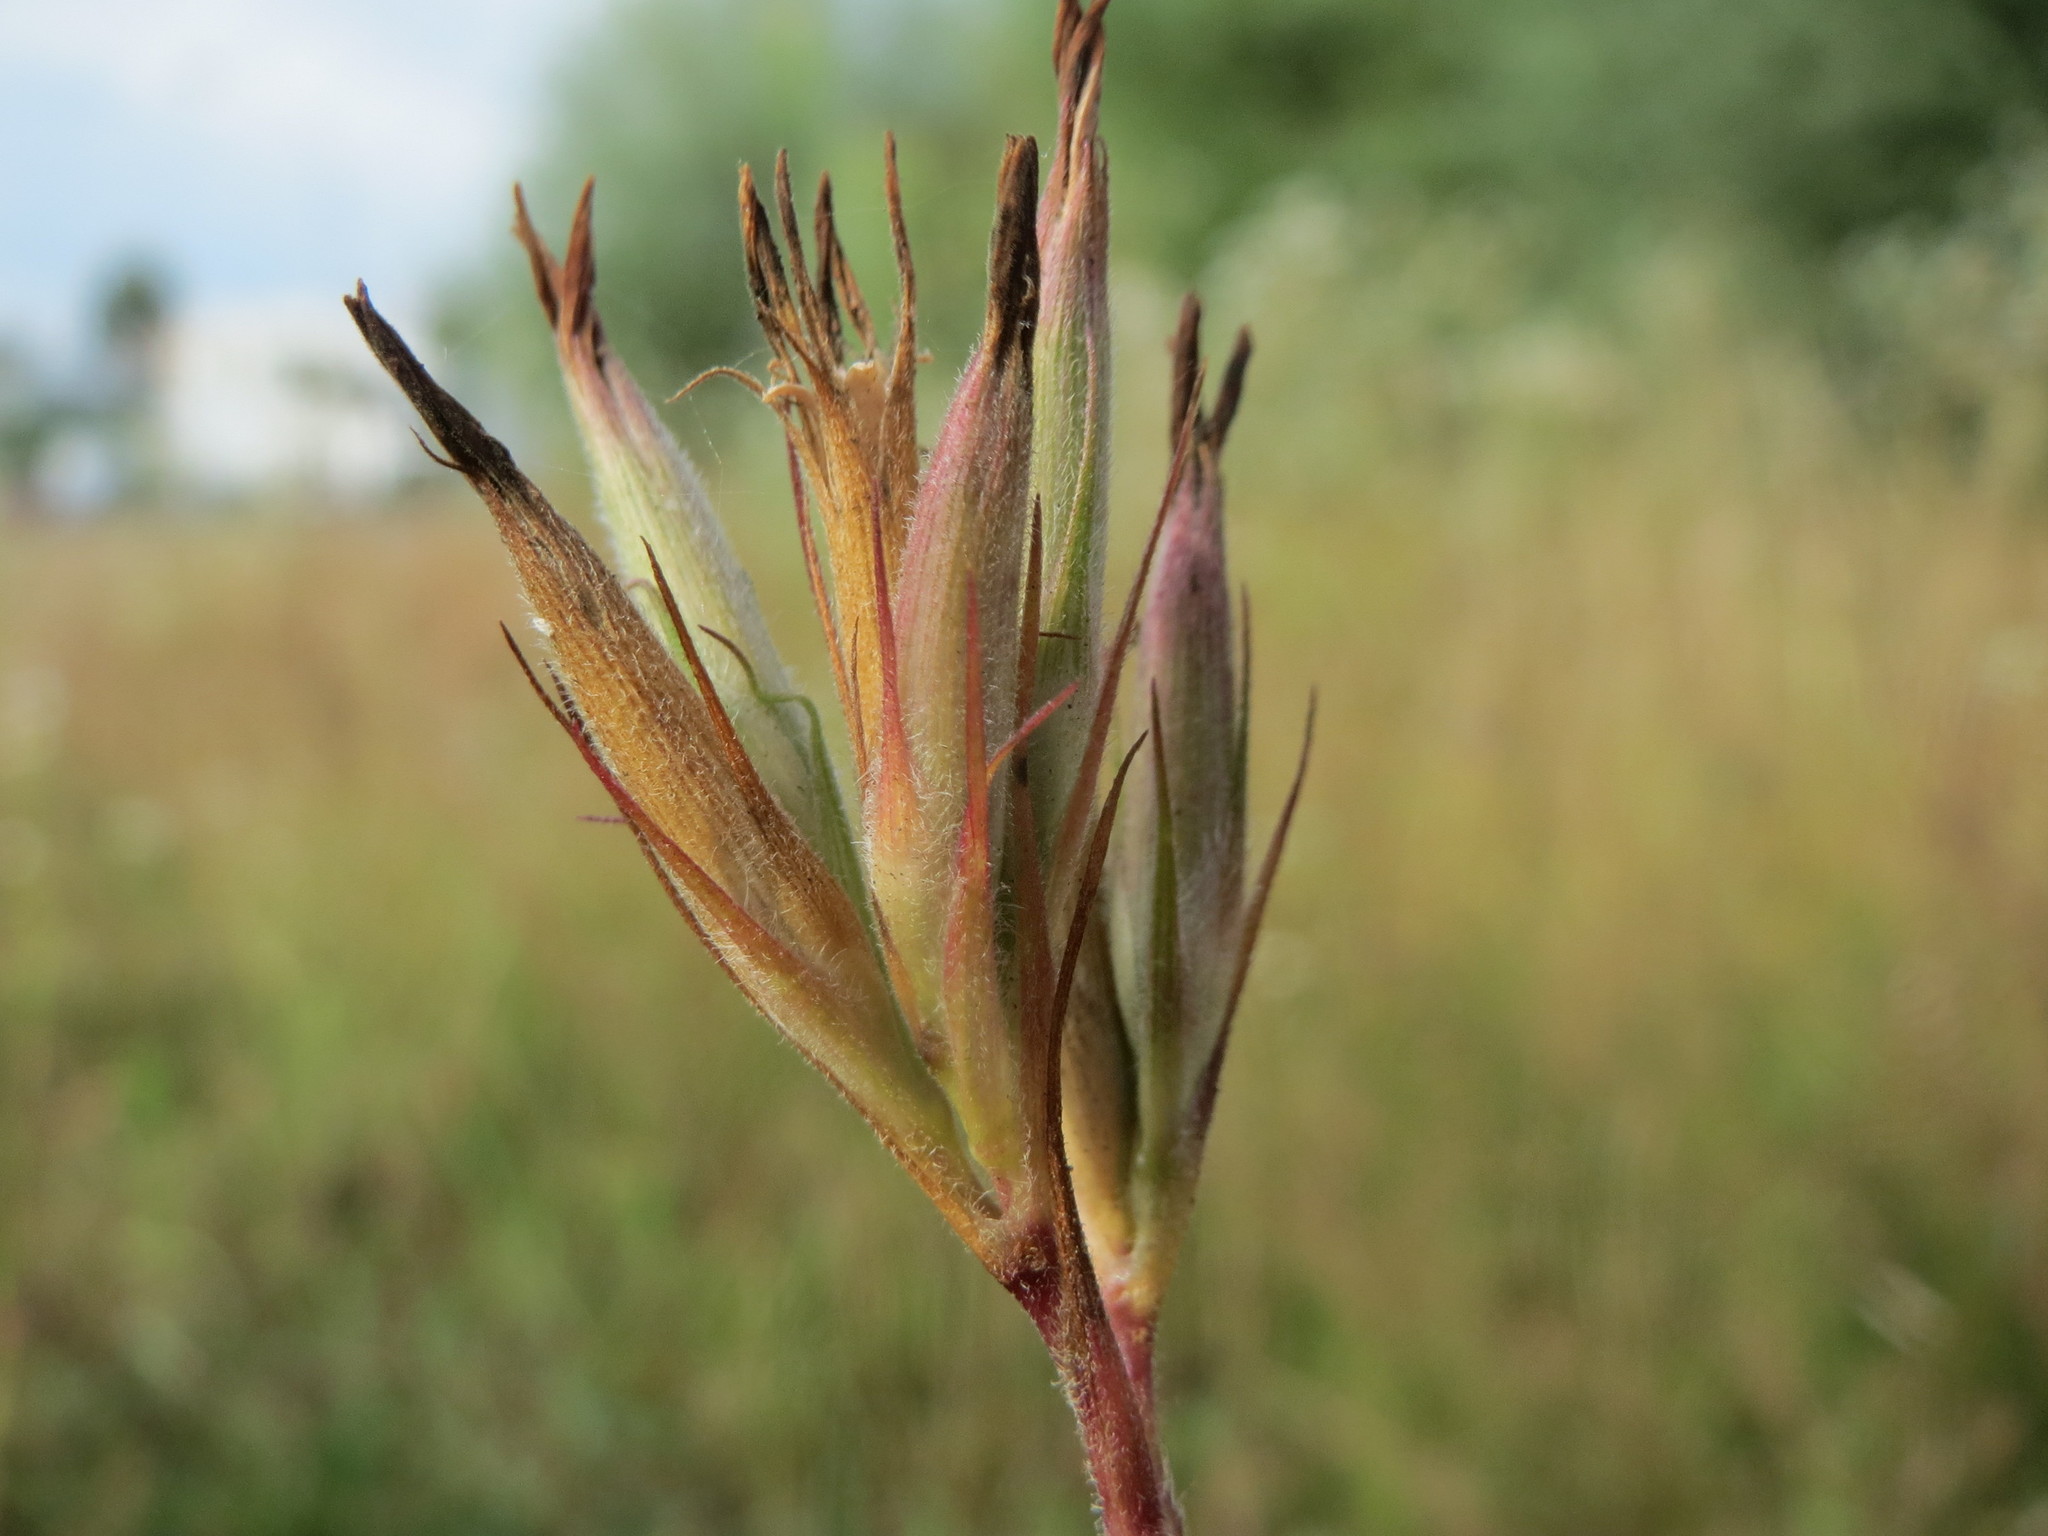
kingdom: Plantae
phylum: Tracheophyta
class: Magnoliopsida
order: Caryophyllales
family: Caryophyllaceae
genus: Dianthus
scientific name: Dianthus armeria
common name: Deptford pink
